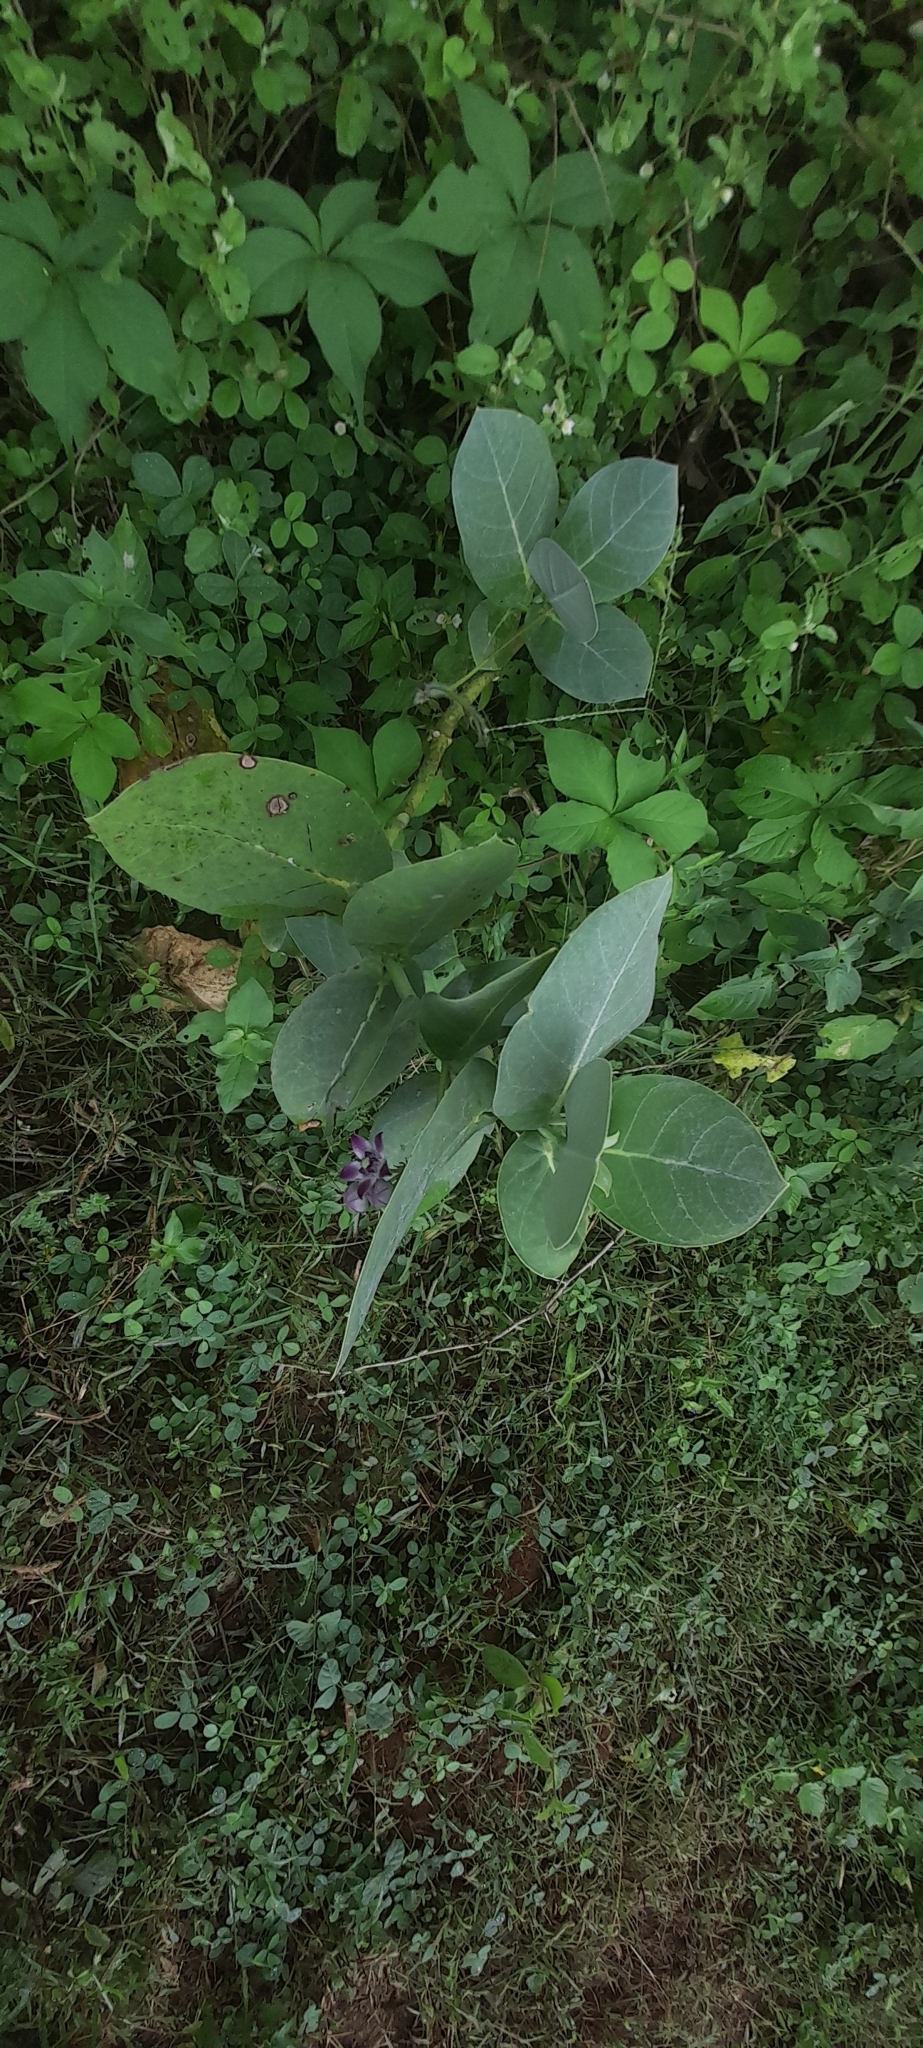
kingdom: Plantae
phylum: Tracheophyta
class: Magnoliopsida
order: Gentianales
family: Apocynaceae
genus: Calotropis
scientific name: Calotropis procera
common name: Roostertree
